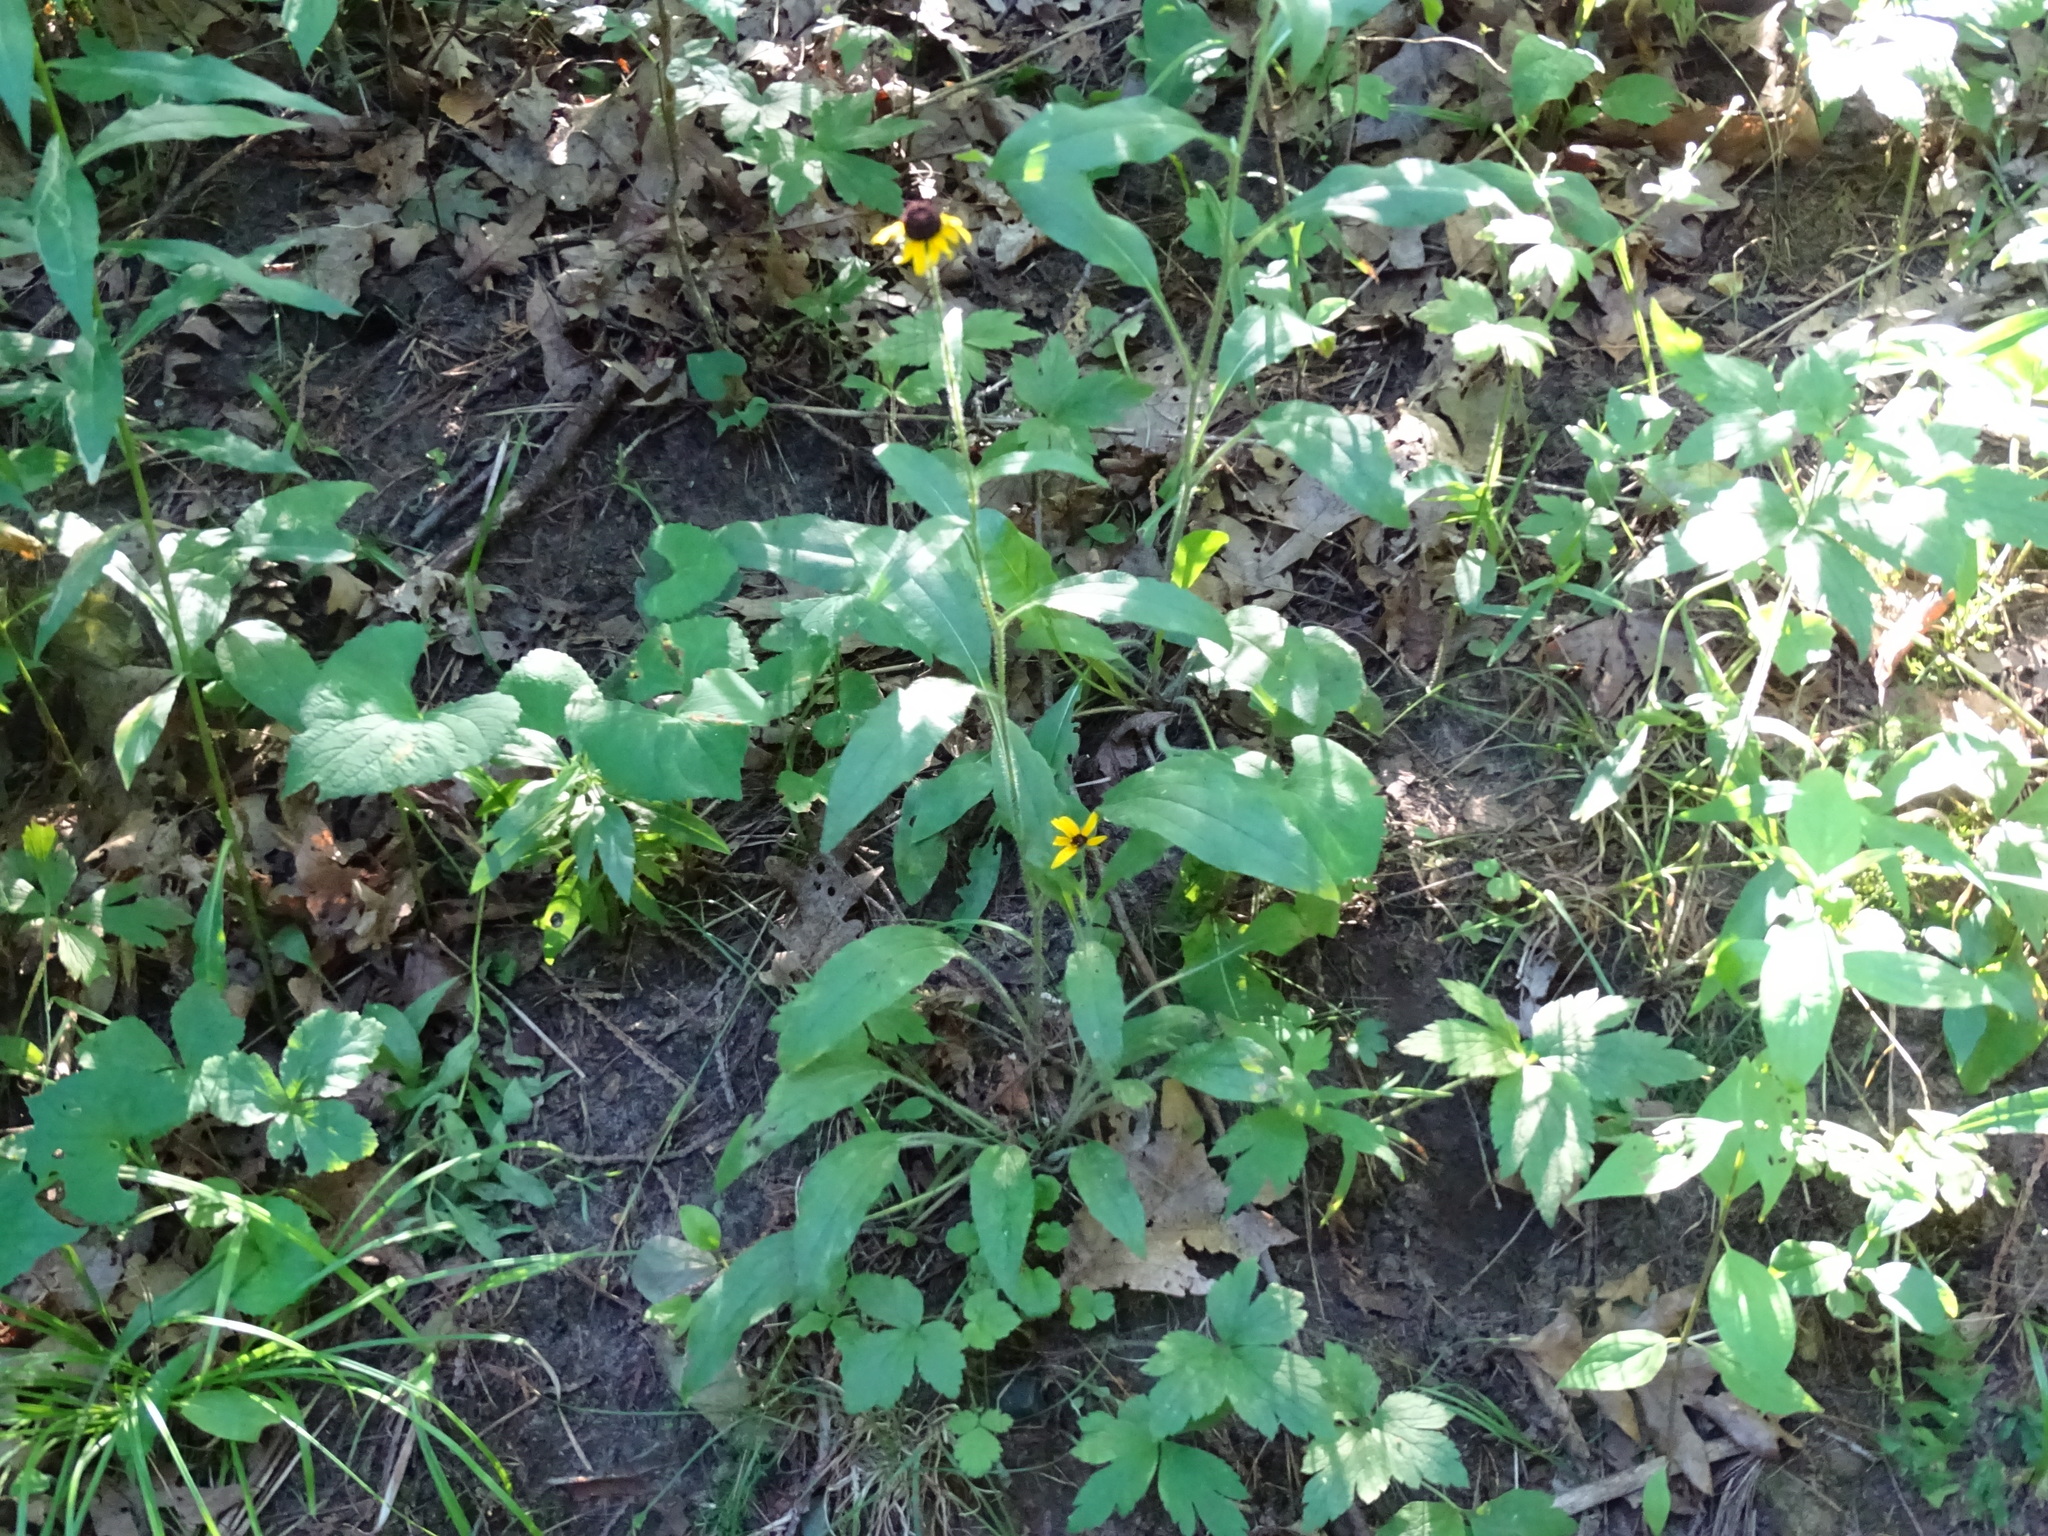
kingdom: Plantae
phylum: Tracheophyta
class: Magnoliopsida
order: Asterales
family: Asteraceae
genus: Rudbeckia
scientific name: Rudbeckia hirta
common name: Black-eyed-susan
